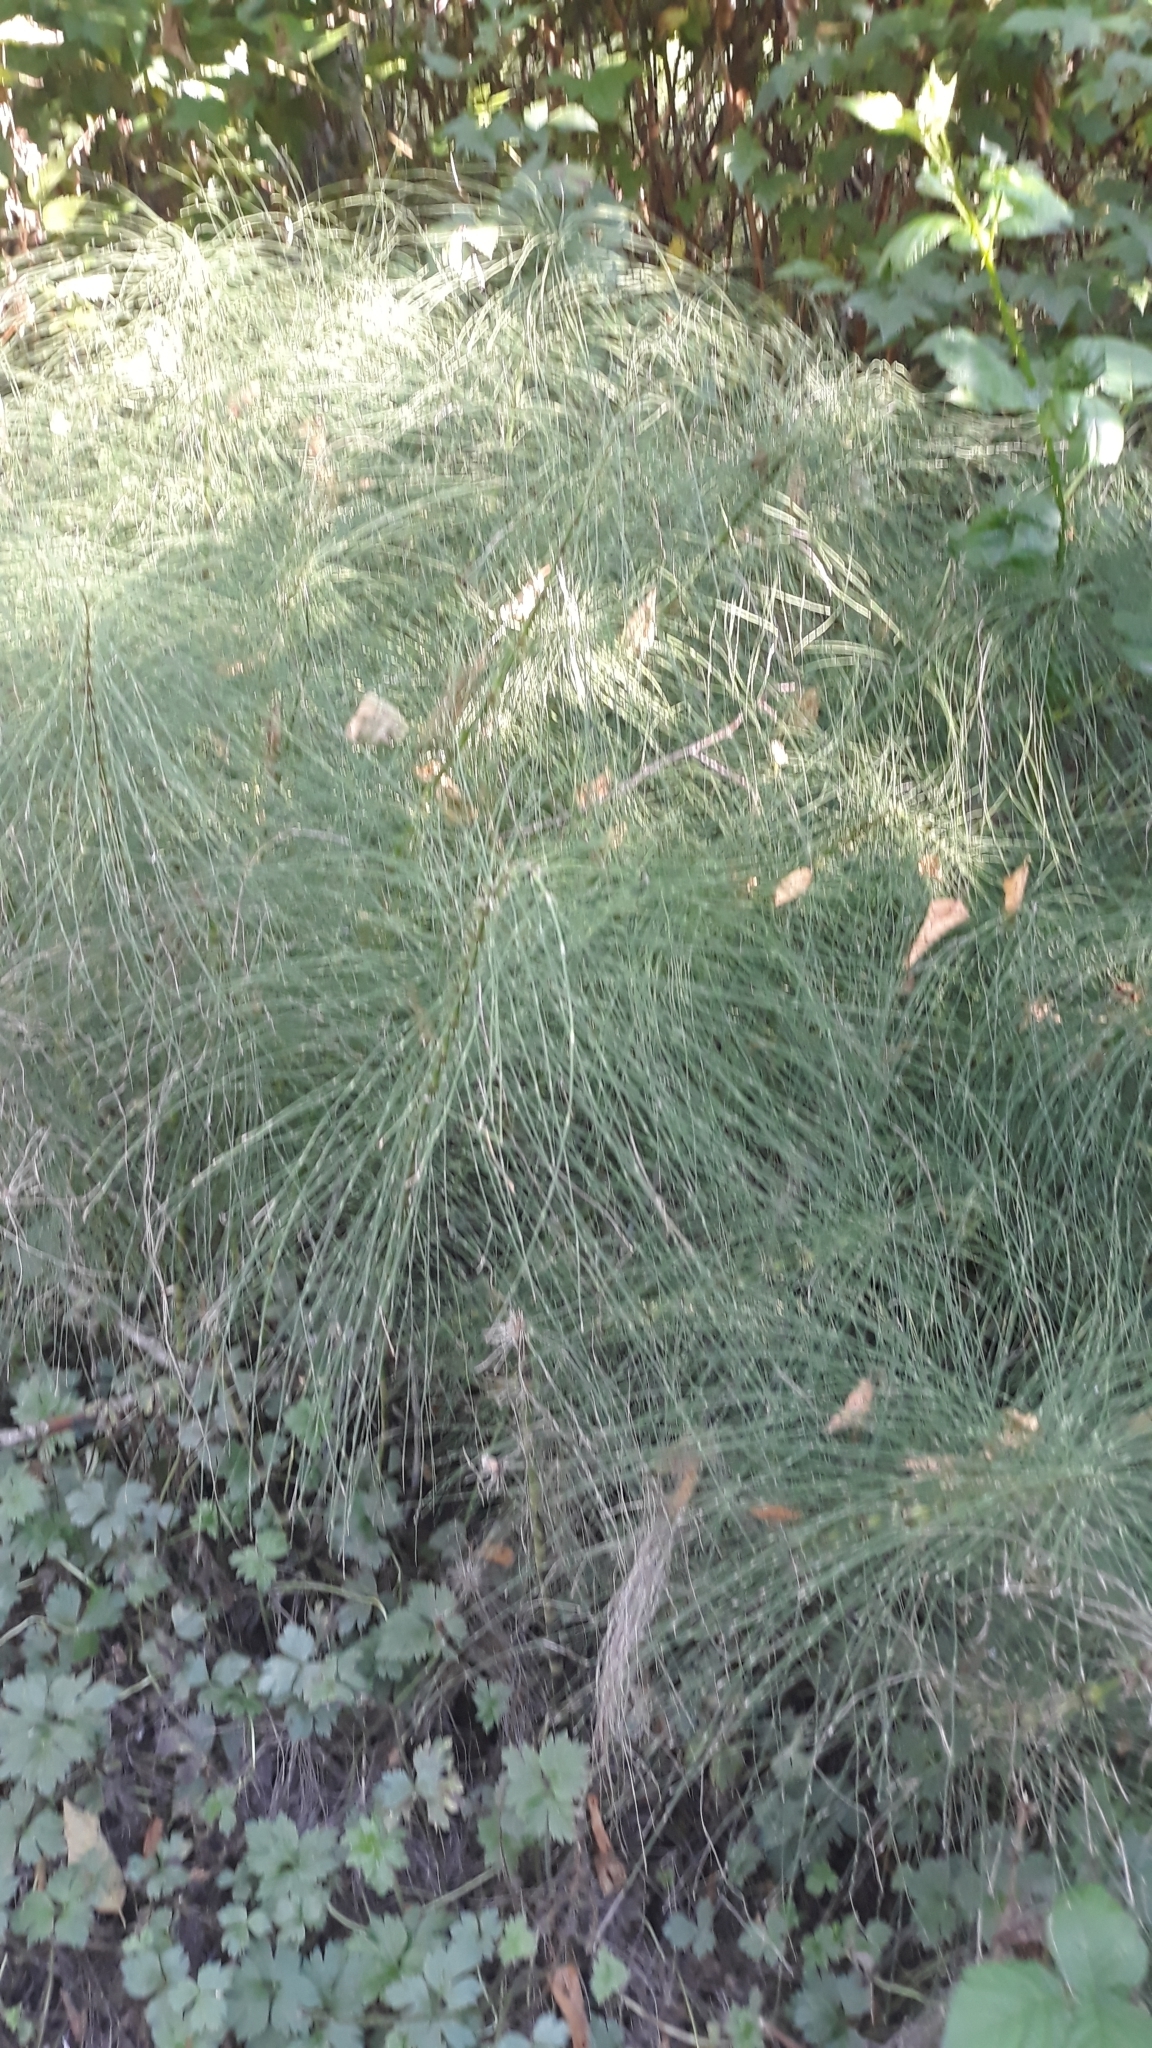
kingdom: Plantae
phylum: Tracheophyta
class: Polypodiopsida
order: Equisetales
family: Equisetaceae
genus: Equisetum
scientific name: Equisetum telmateia
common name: Great horsetail
